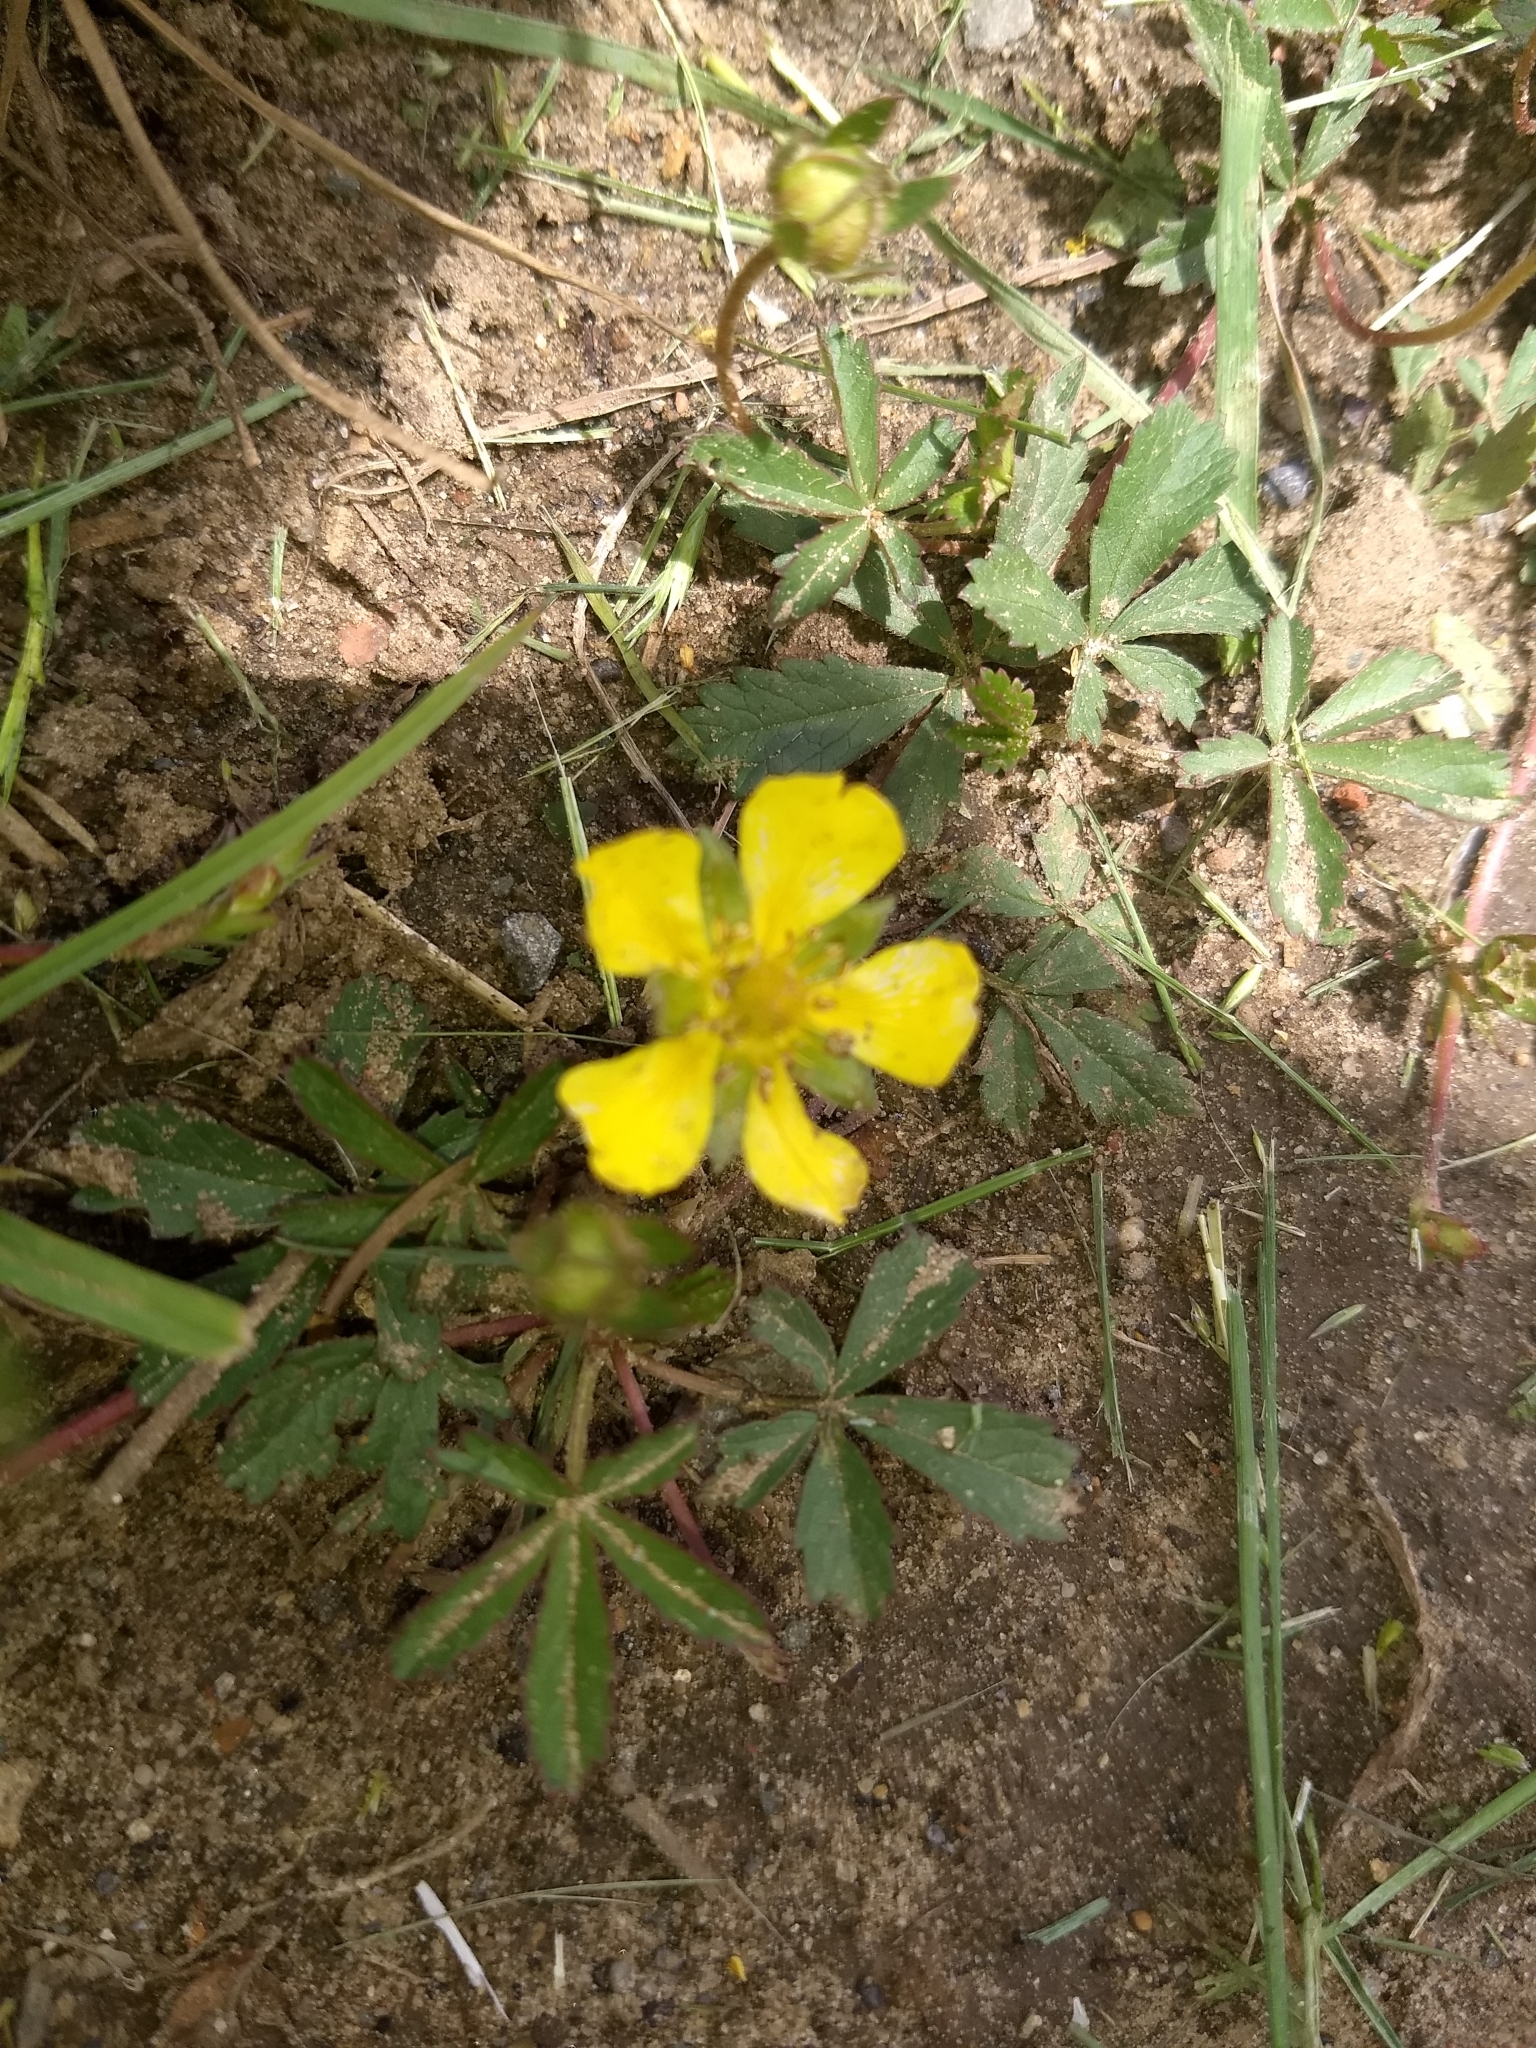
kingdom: Plantae
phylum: Tracheophyta
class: Magnoliopsida
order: Rosales
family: Rosaceae
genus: Potentilla
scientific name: Potentilla reptans
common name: Creeping cinquefoil
